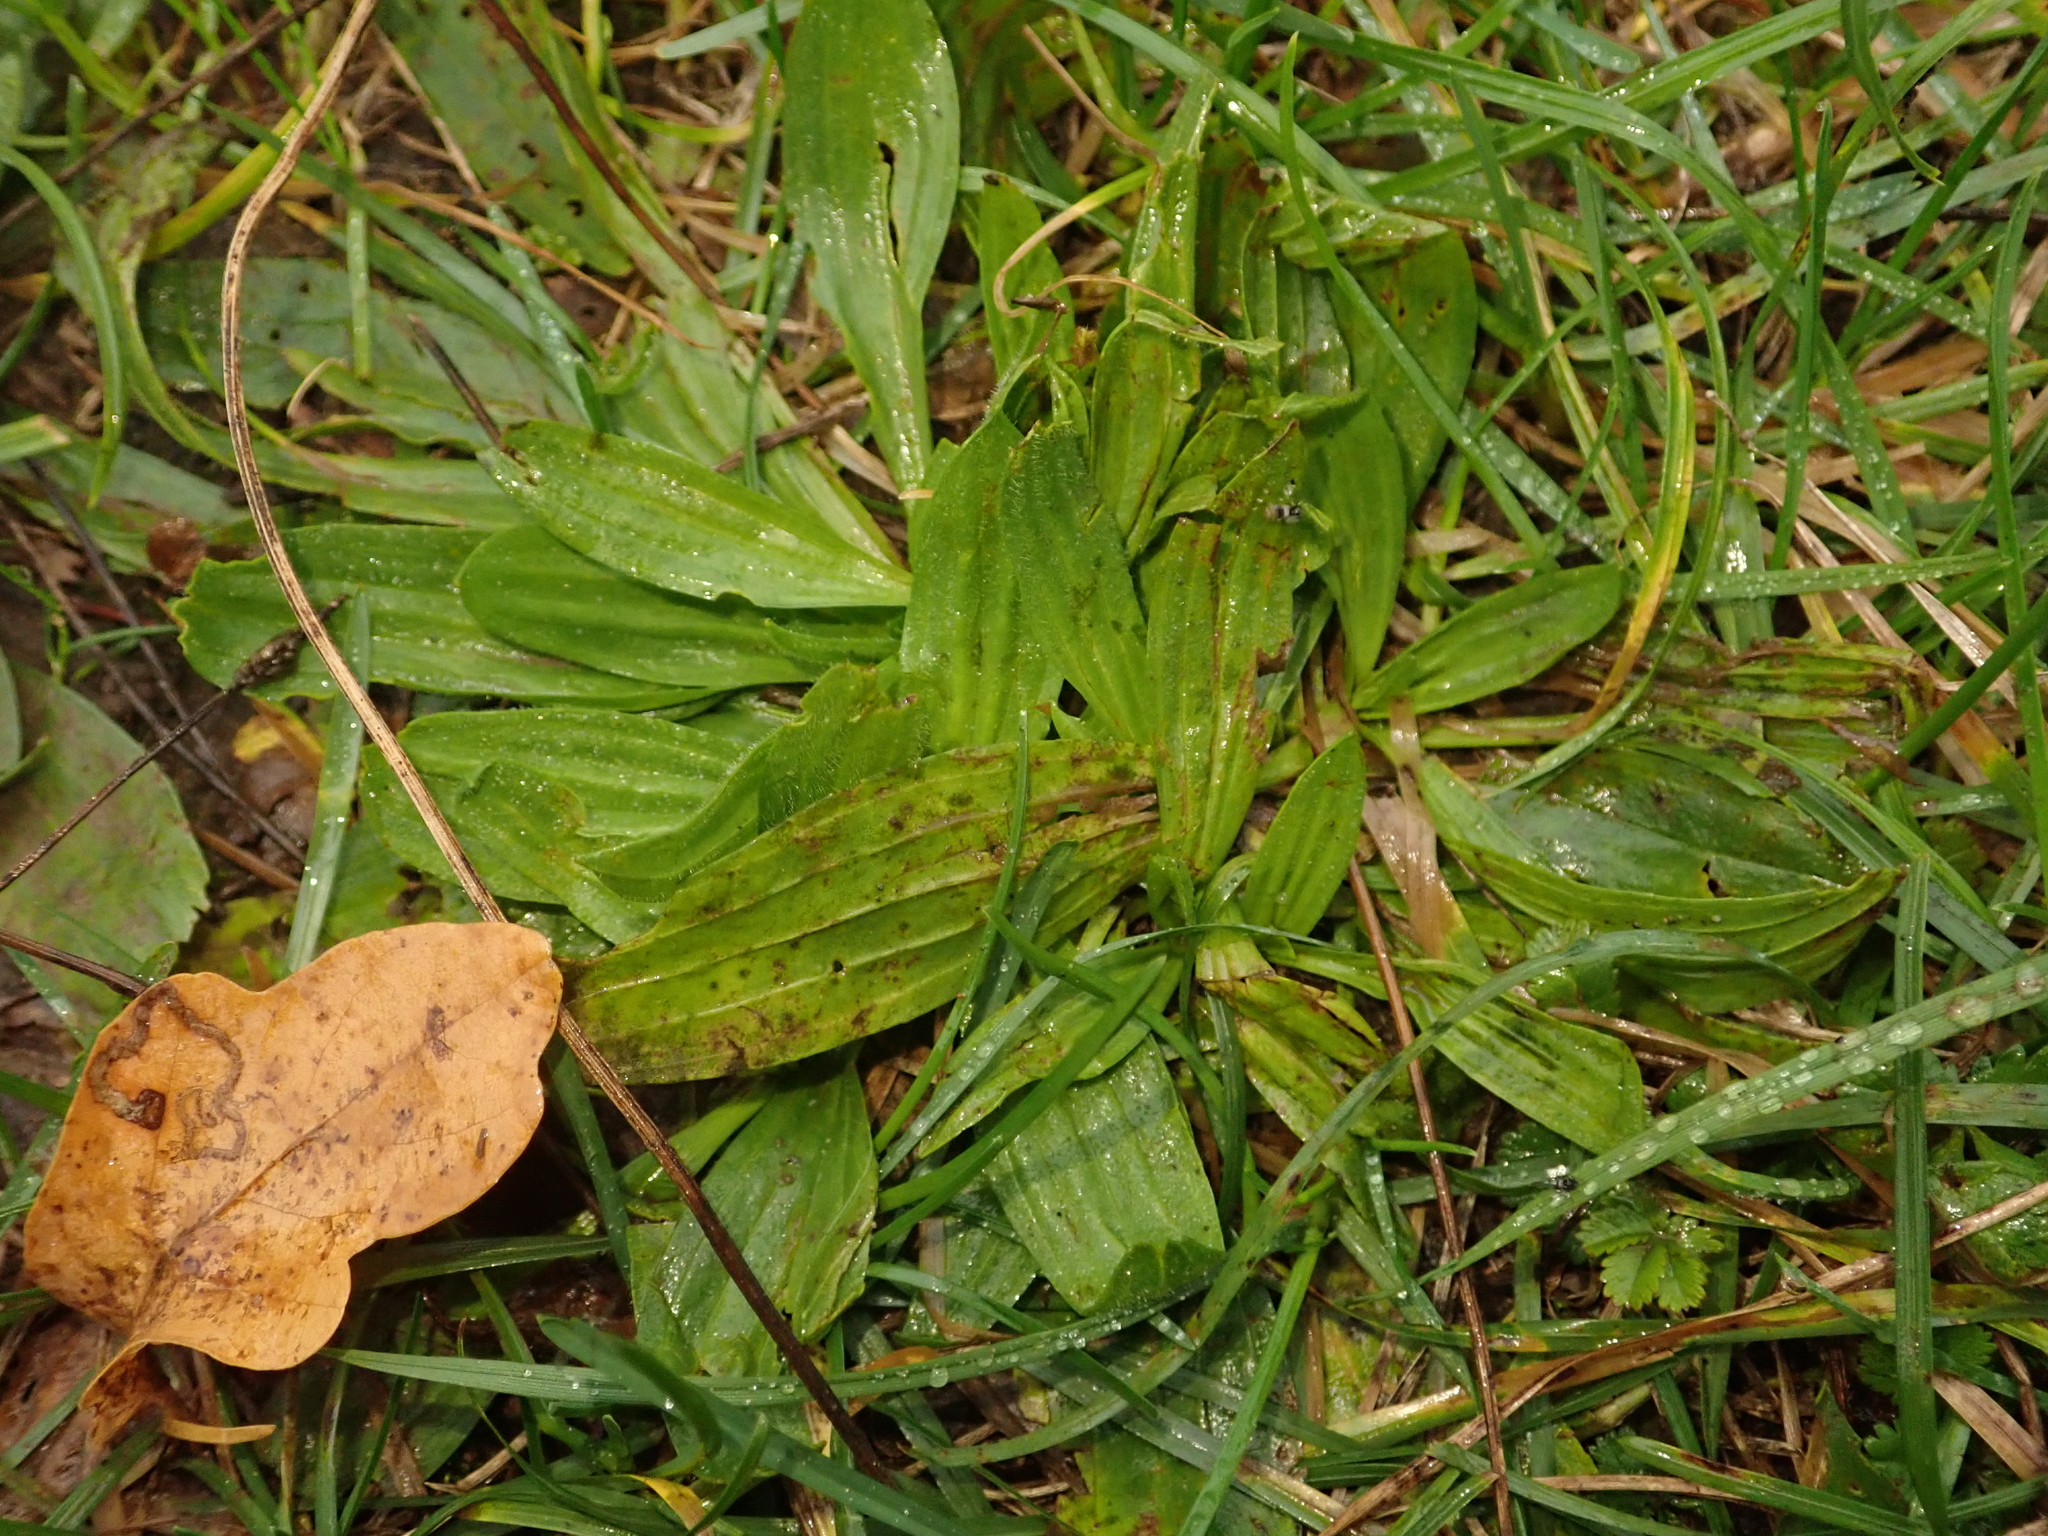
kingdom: Plantae
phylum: Tracheophyta
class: Magnoliopsida
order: Lamiales
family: Plantaginaceae
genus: Plantago
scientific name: Plantago lanceolata
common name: Ribwort plantain
